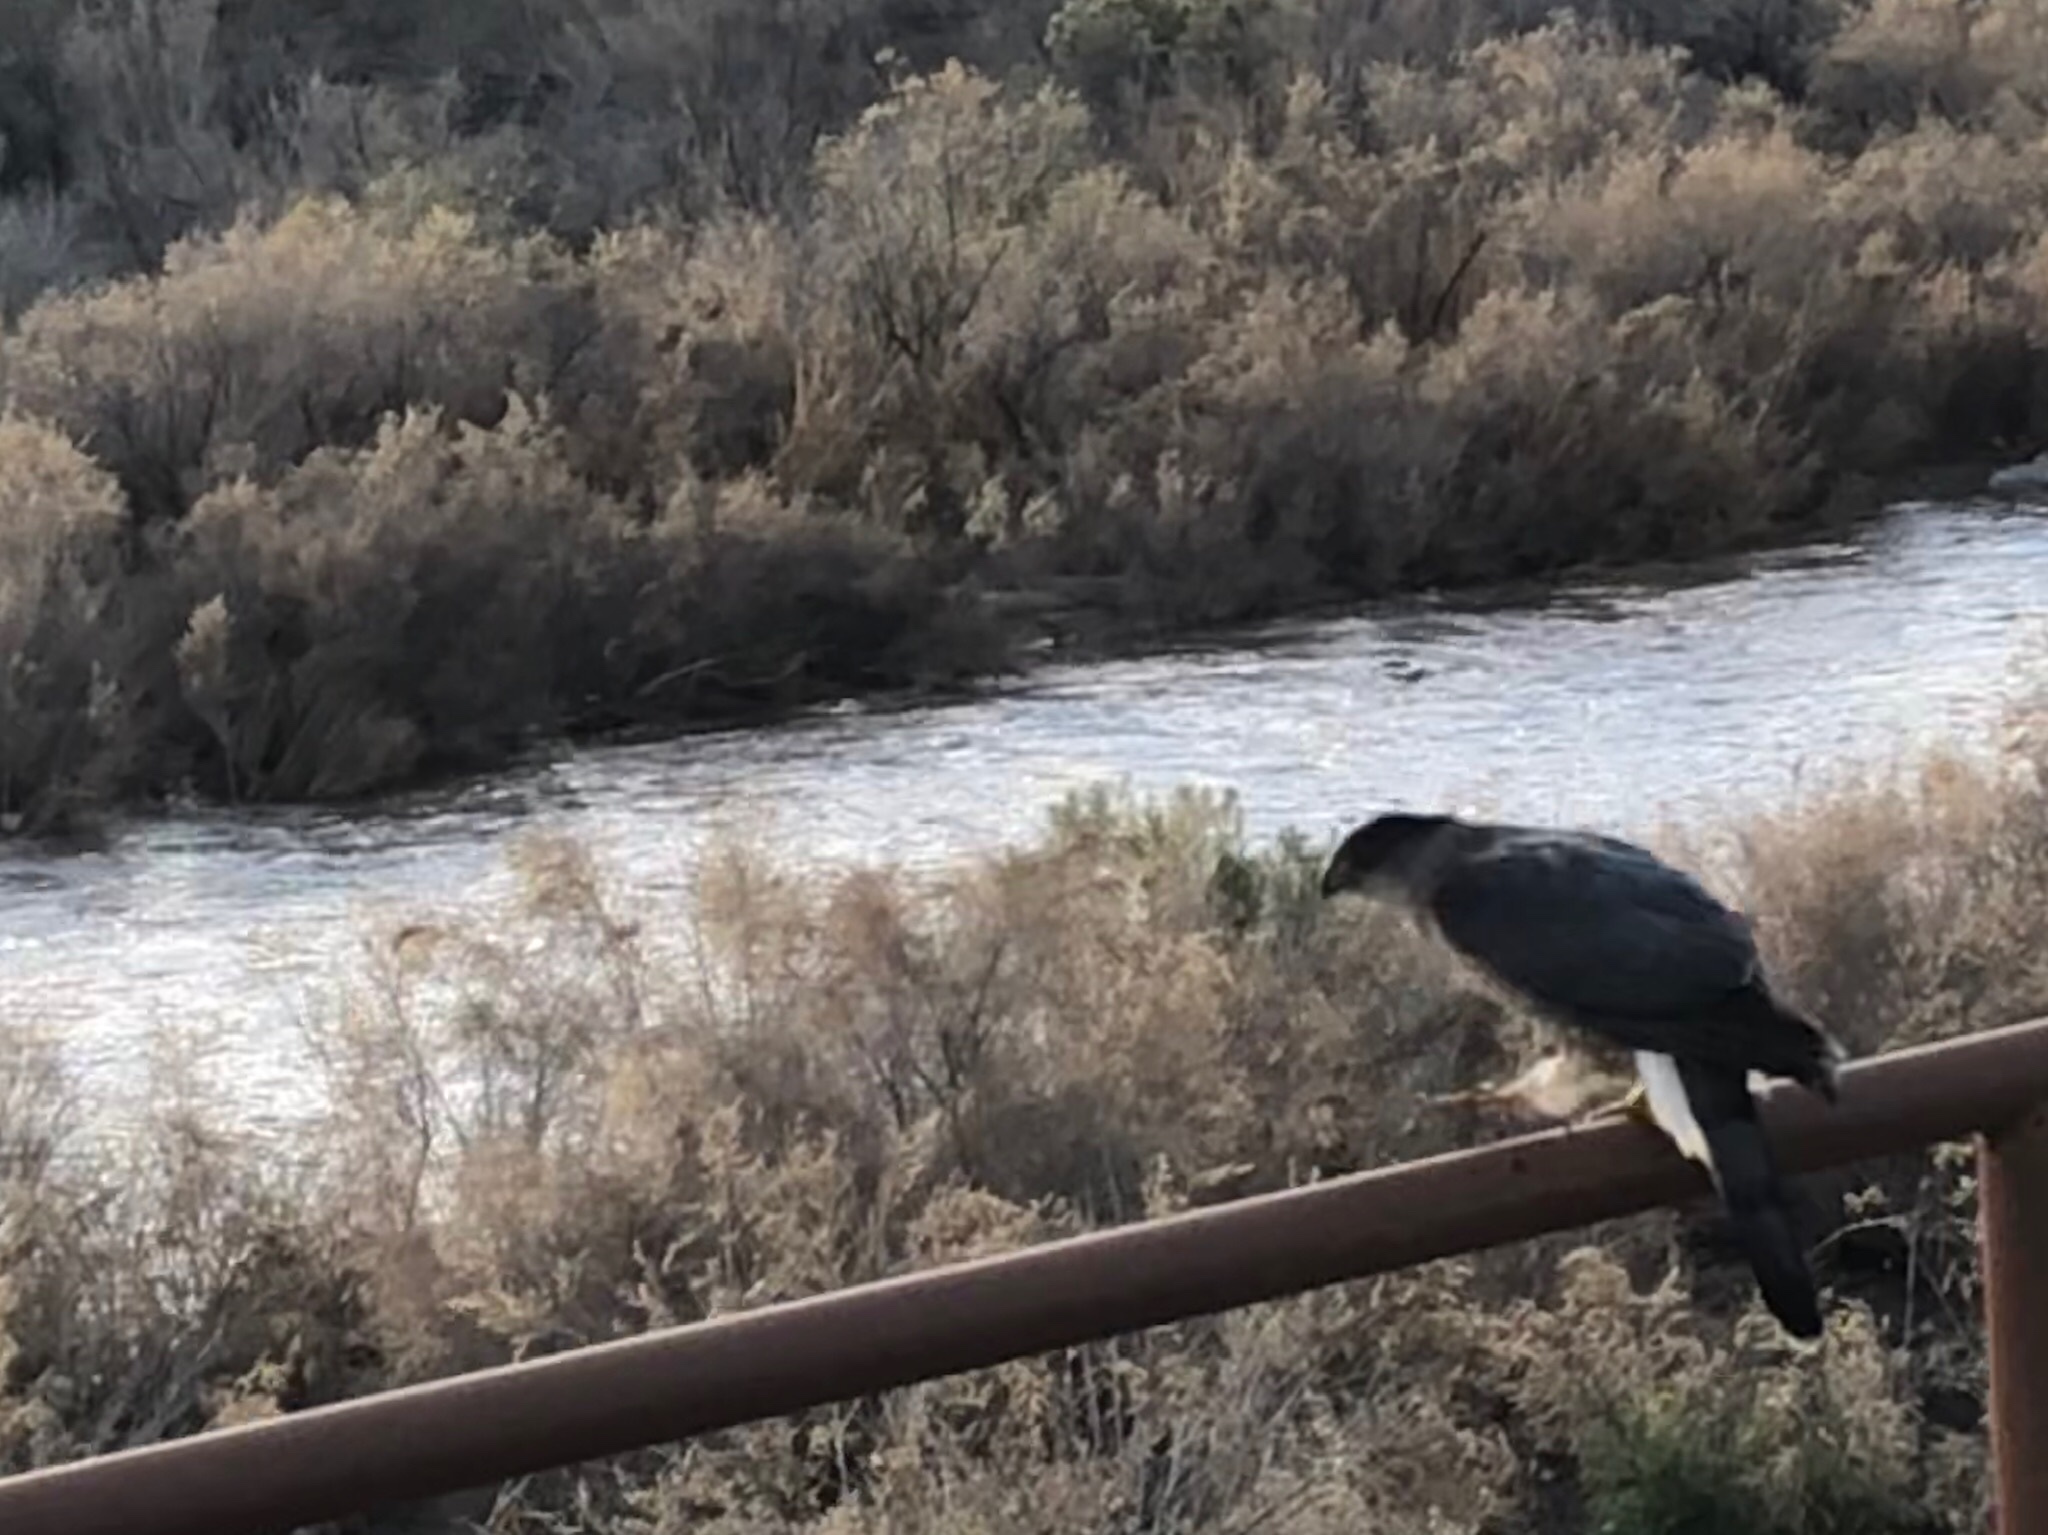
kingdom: Animalia
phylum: Chordata
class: Aves
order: Accipitriformes
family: Accipitridae
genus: Accipiter
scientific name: Accipiter cooperii
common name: Cooper's hawk
